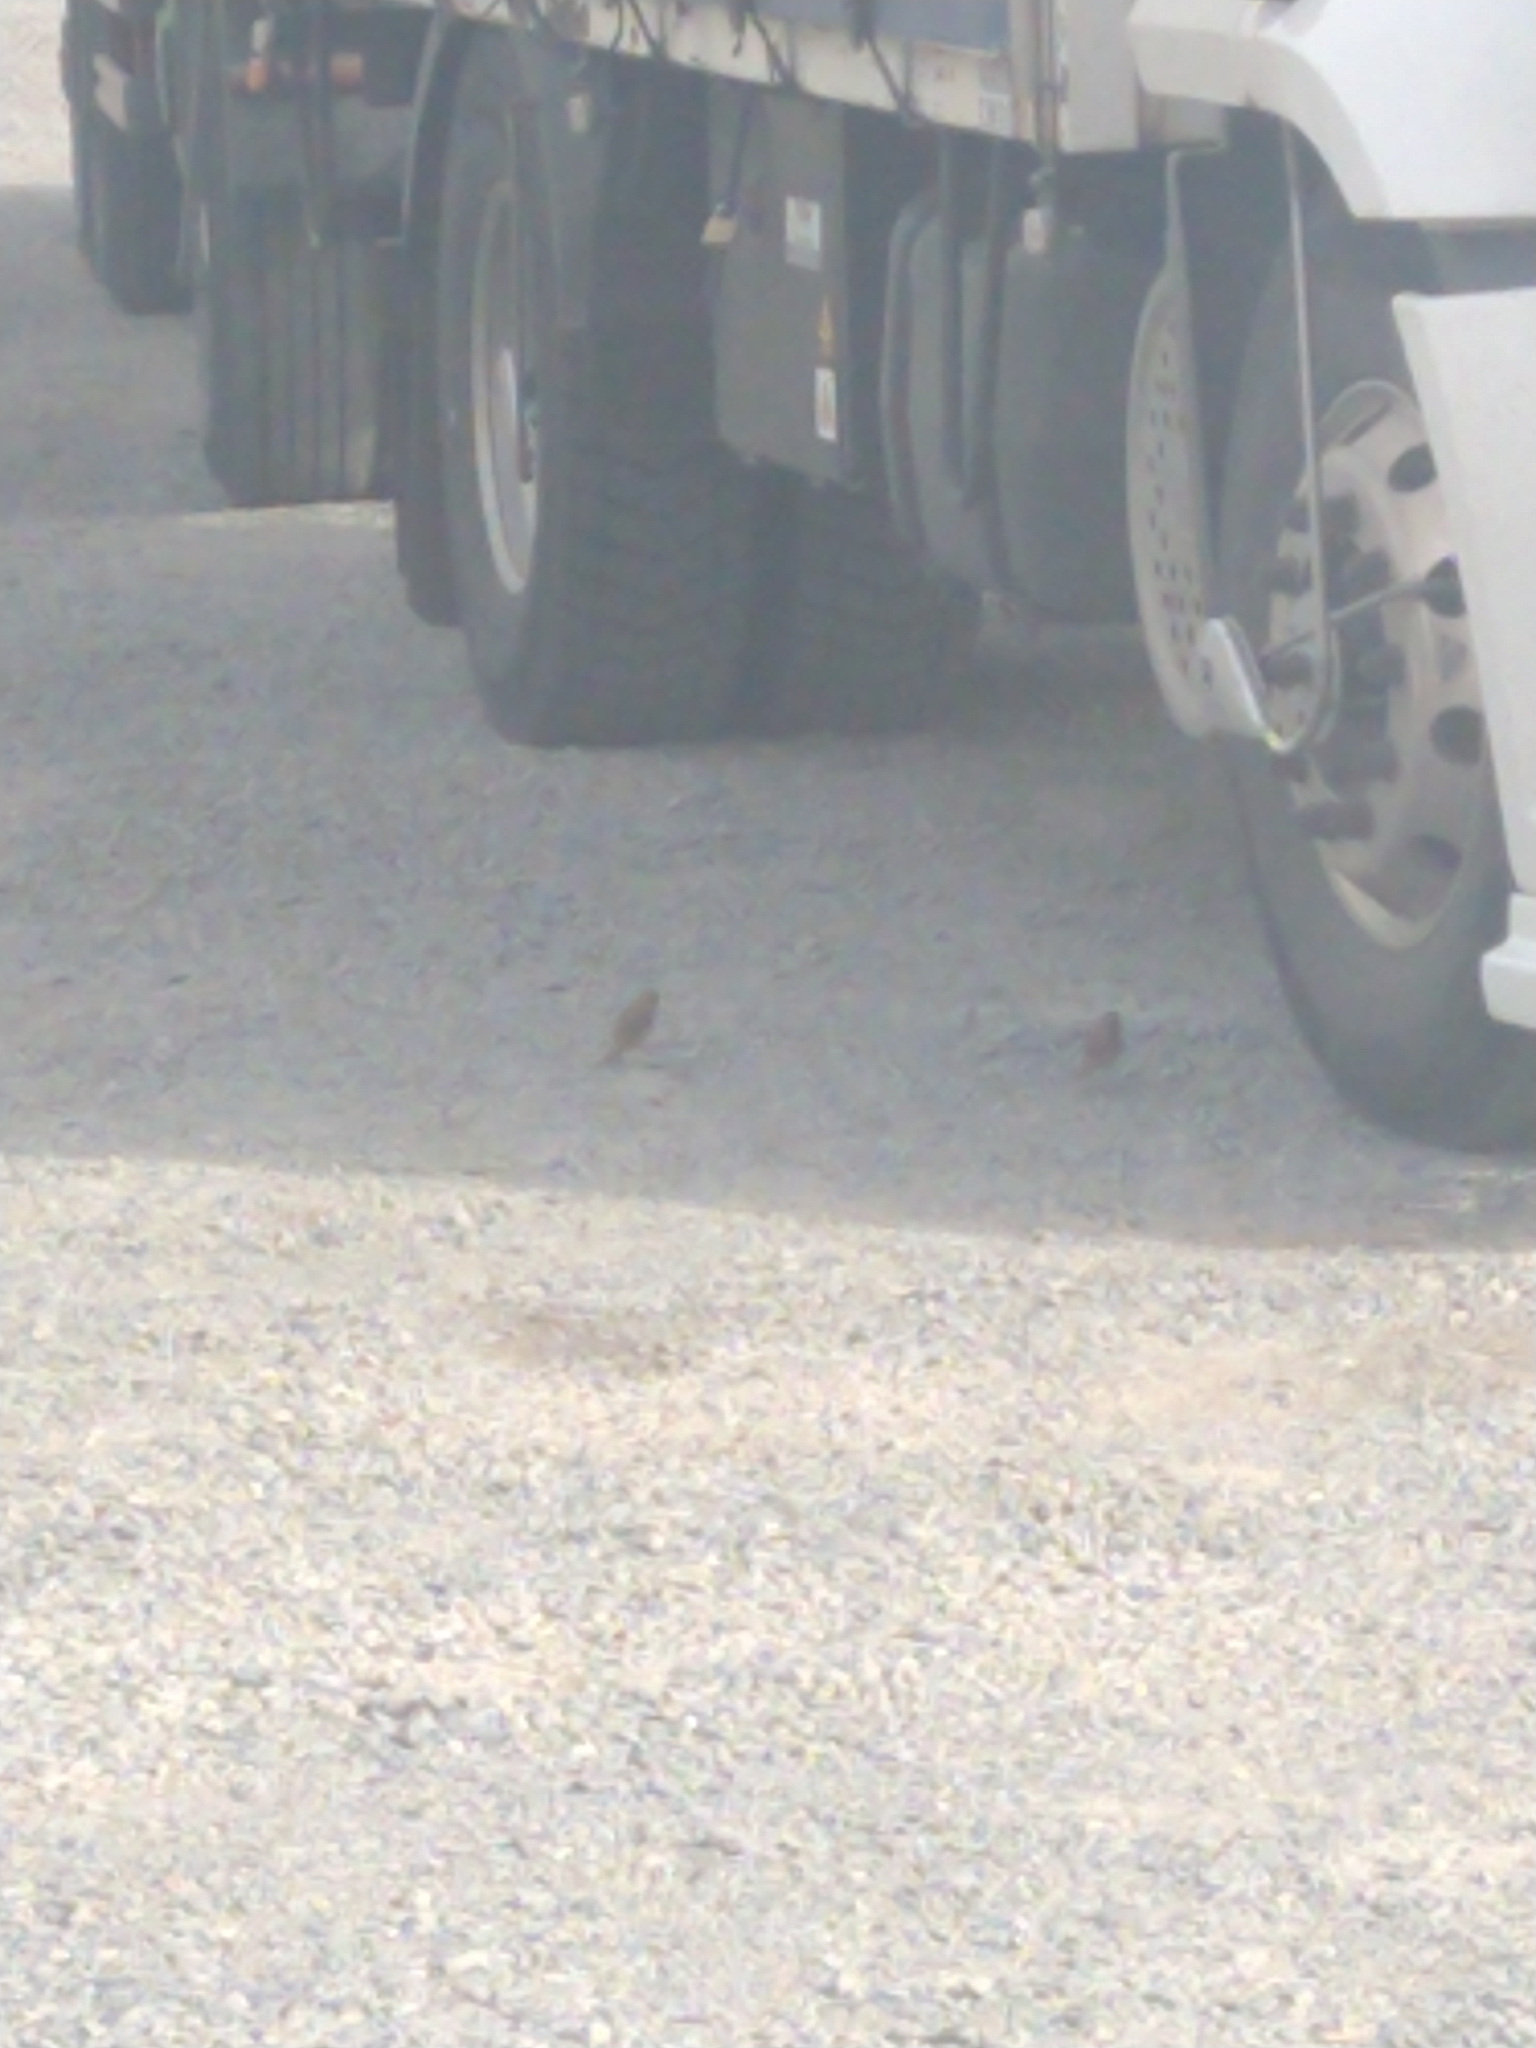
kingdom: Animalia
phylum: Chordata
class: Aves
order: Passeriformes
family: Passeridae
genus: Passer
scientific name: Passer domesticus
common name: House sparrow
